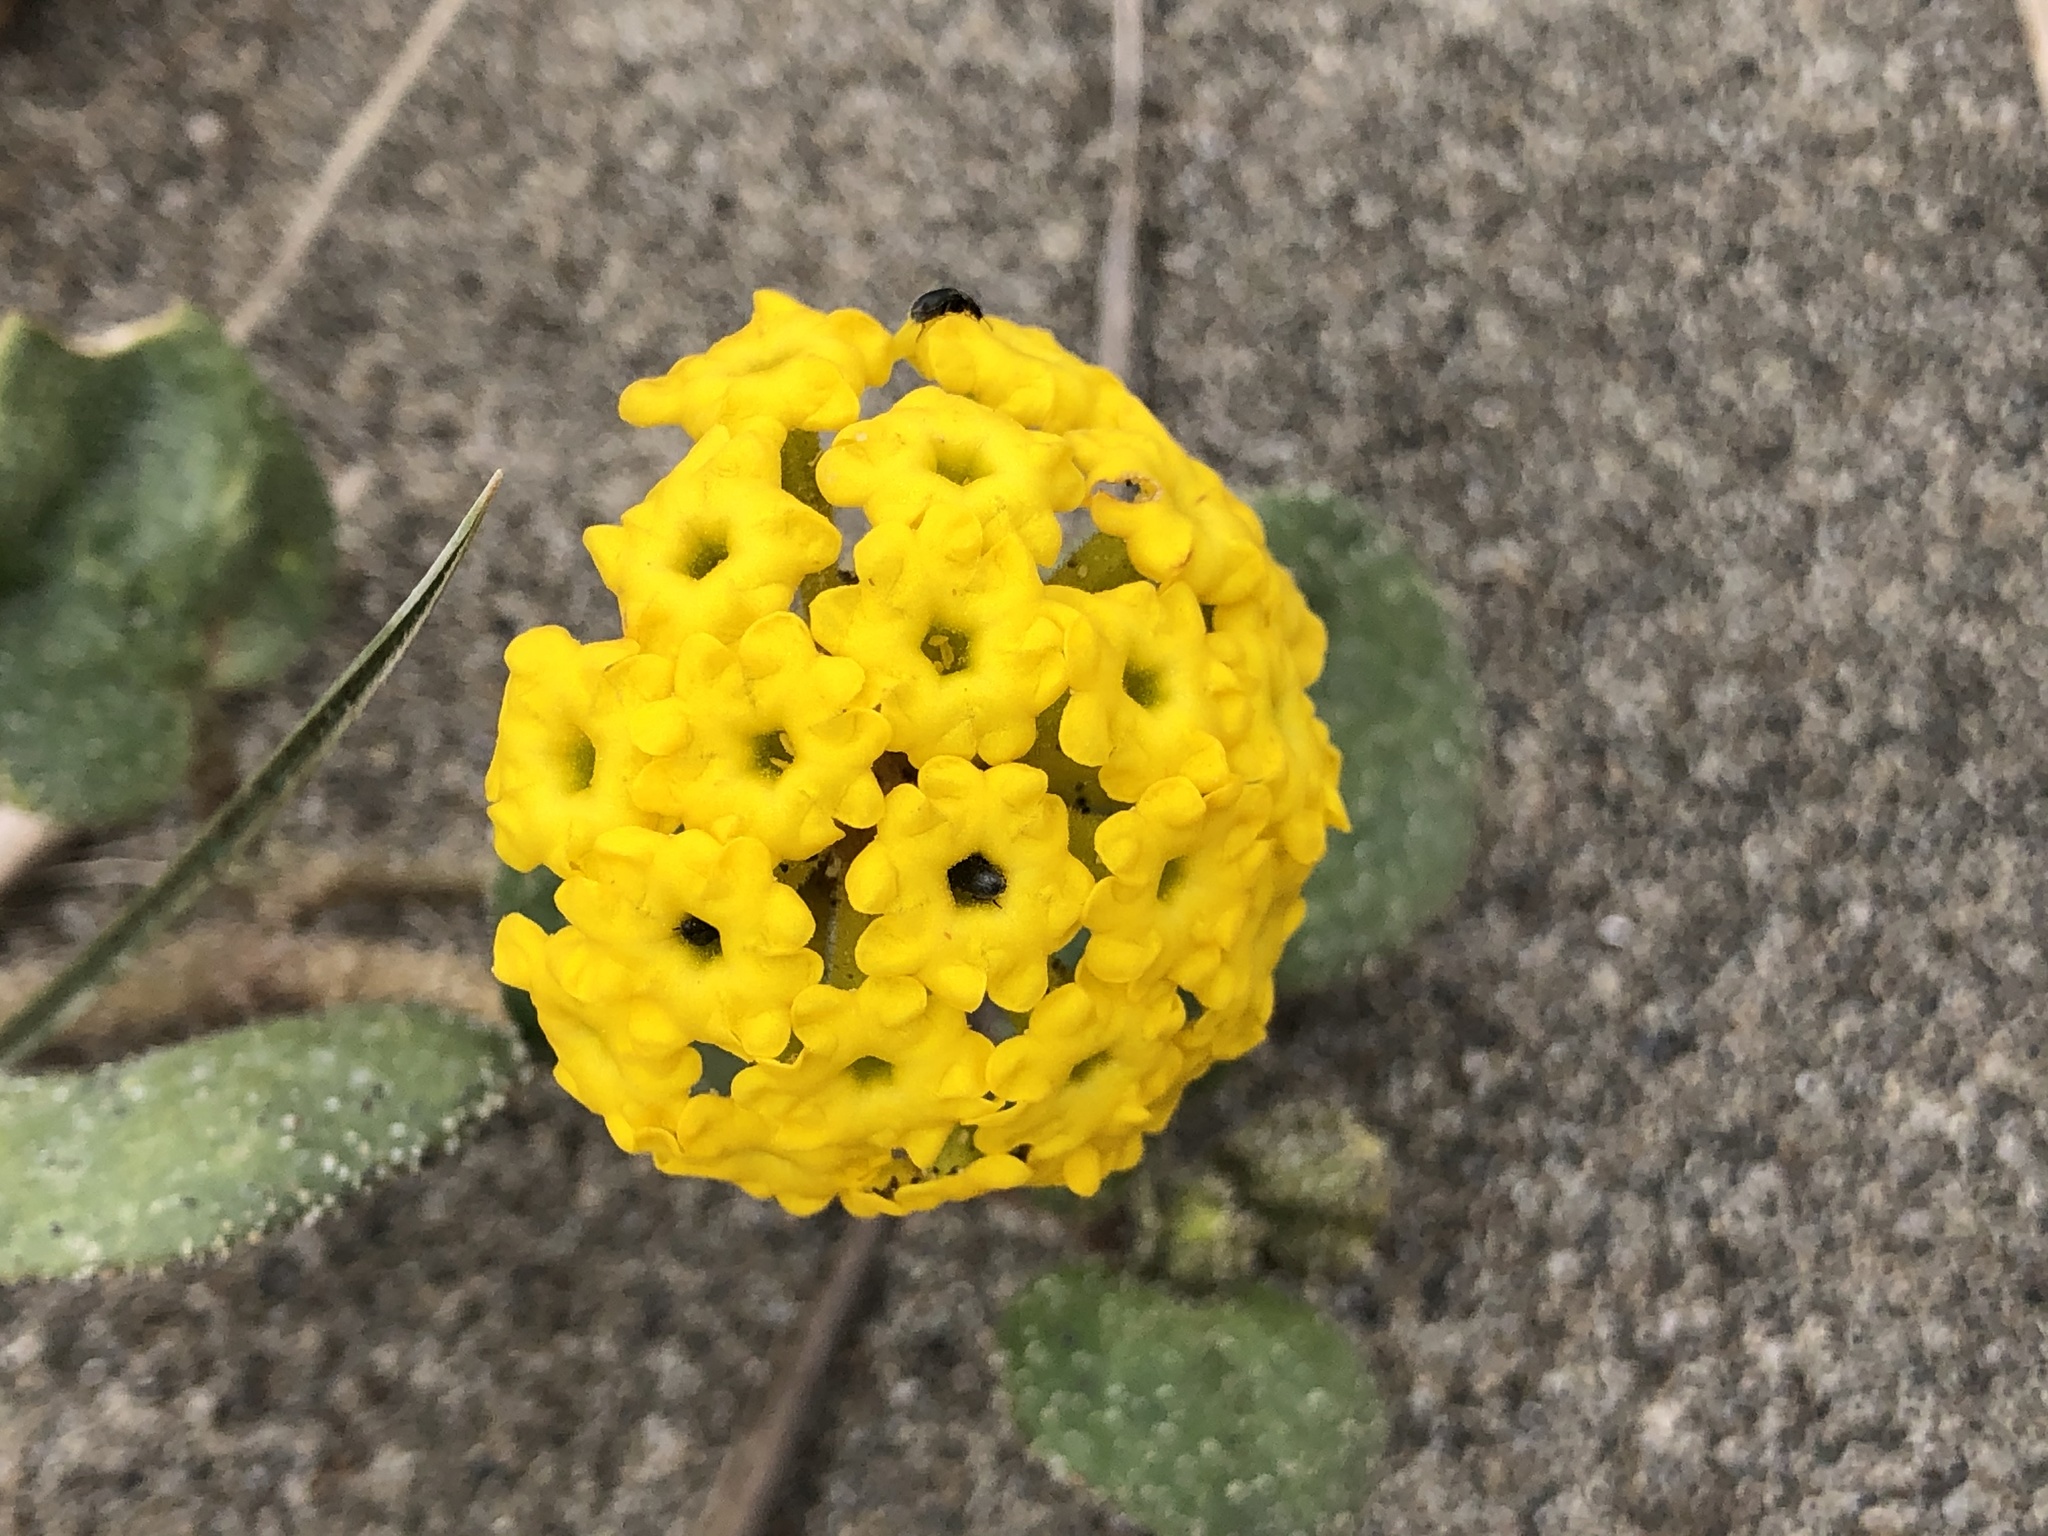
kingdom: Plantae
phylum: Tracheophyta
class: Magnoliopsida
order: Caryophyllales
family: Nyctaginaceae
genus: Abronia
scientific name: Abronia latifolia
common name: Yellow sand-verbena
